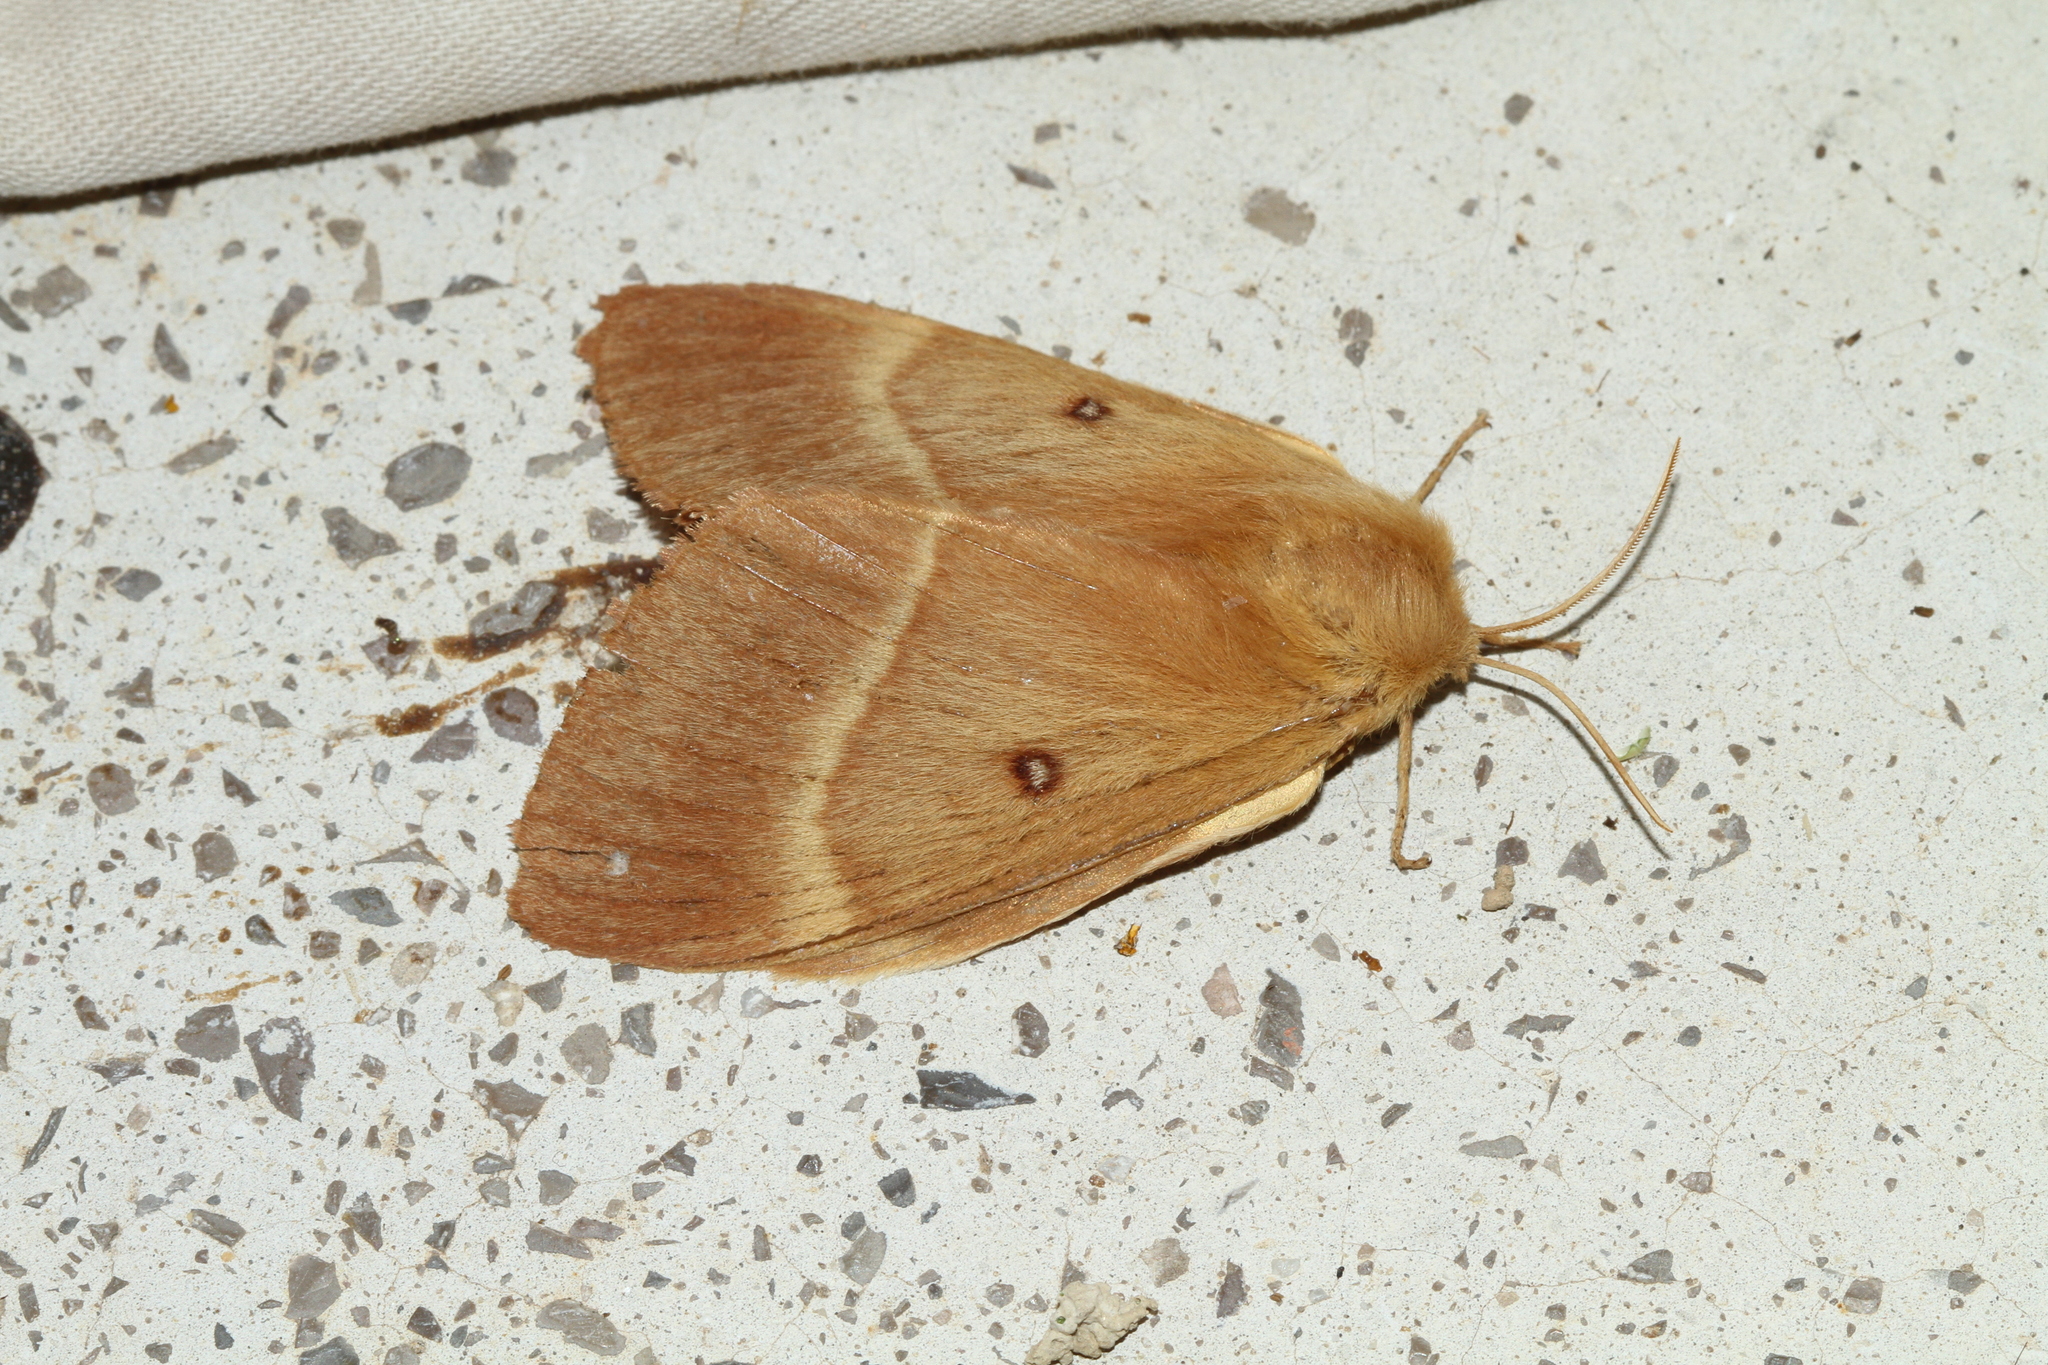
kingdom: Animalia
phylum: Arthropoda
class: Insecta
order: Lepidoptera
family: Lasiocampidae
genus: Lasiocampa
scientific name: Lasiocampa quercus
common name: Oak eggar
